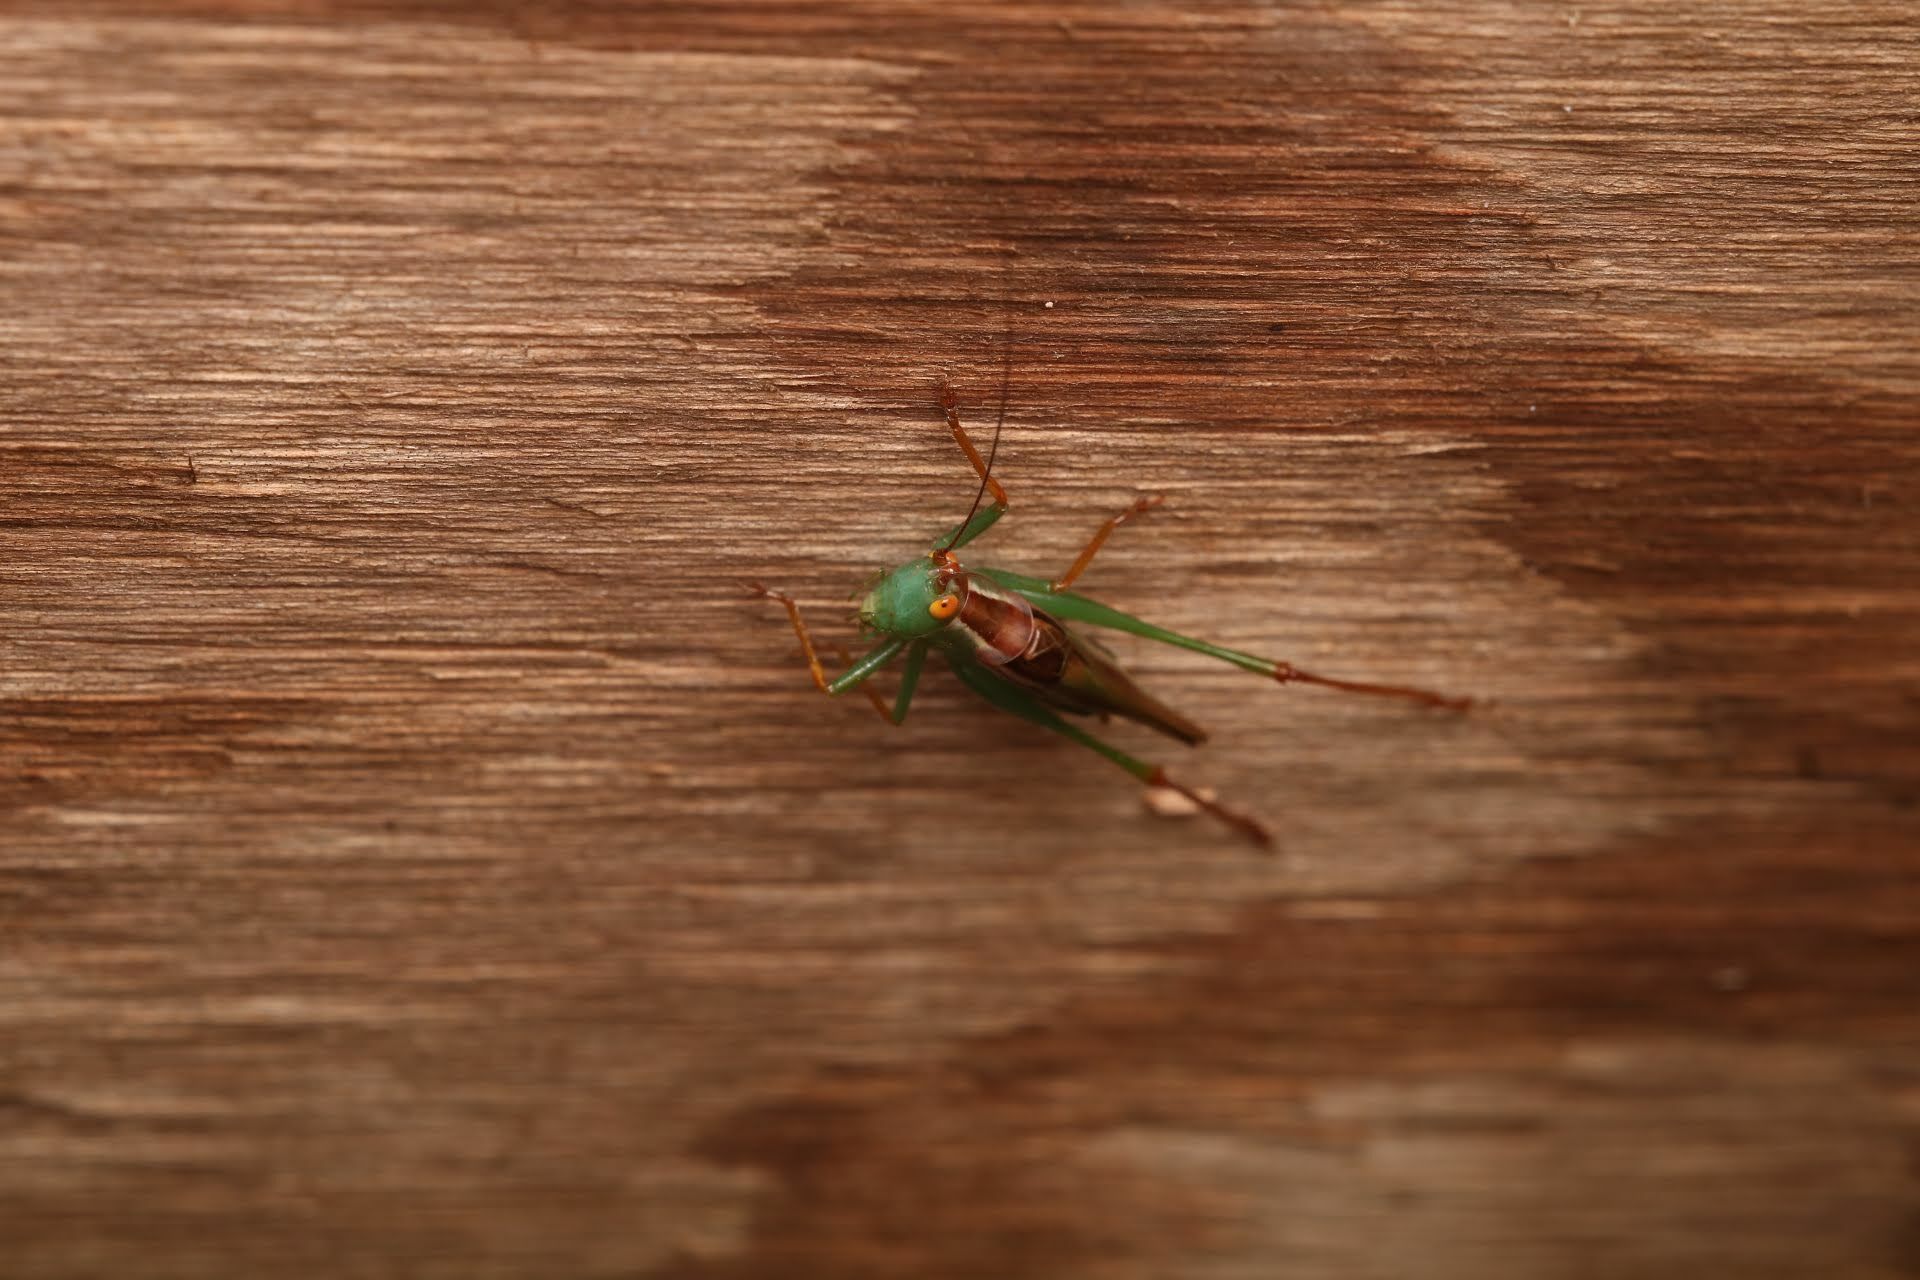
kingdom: Animalia
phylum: Arthropoda
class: Insecta
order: Orthoptera
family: Tettigoniidae
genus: Orchelimum
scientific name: Orchelimum minor
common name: Lesser pine meadow katydid
